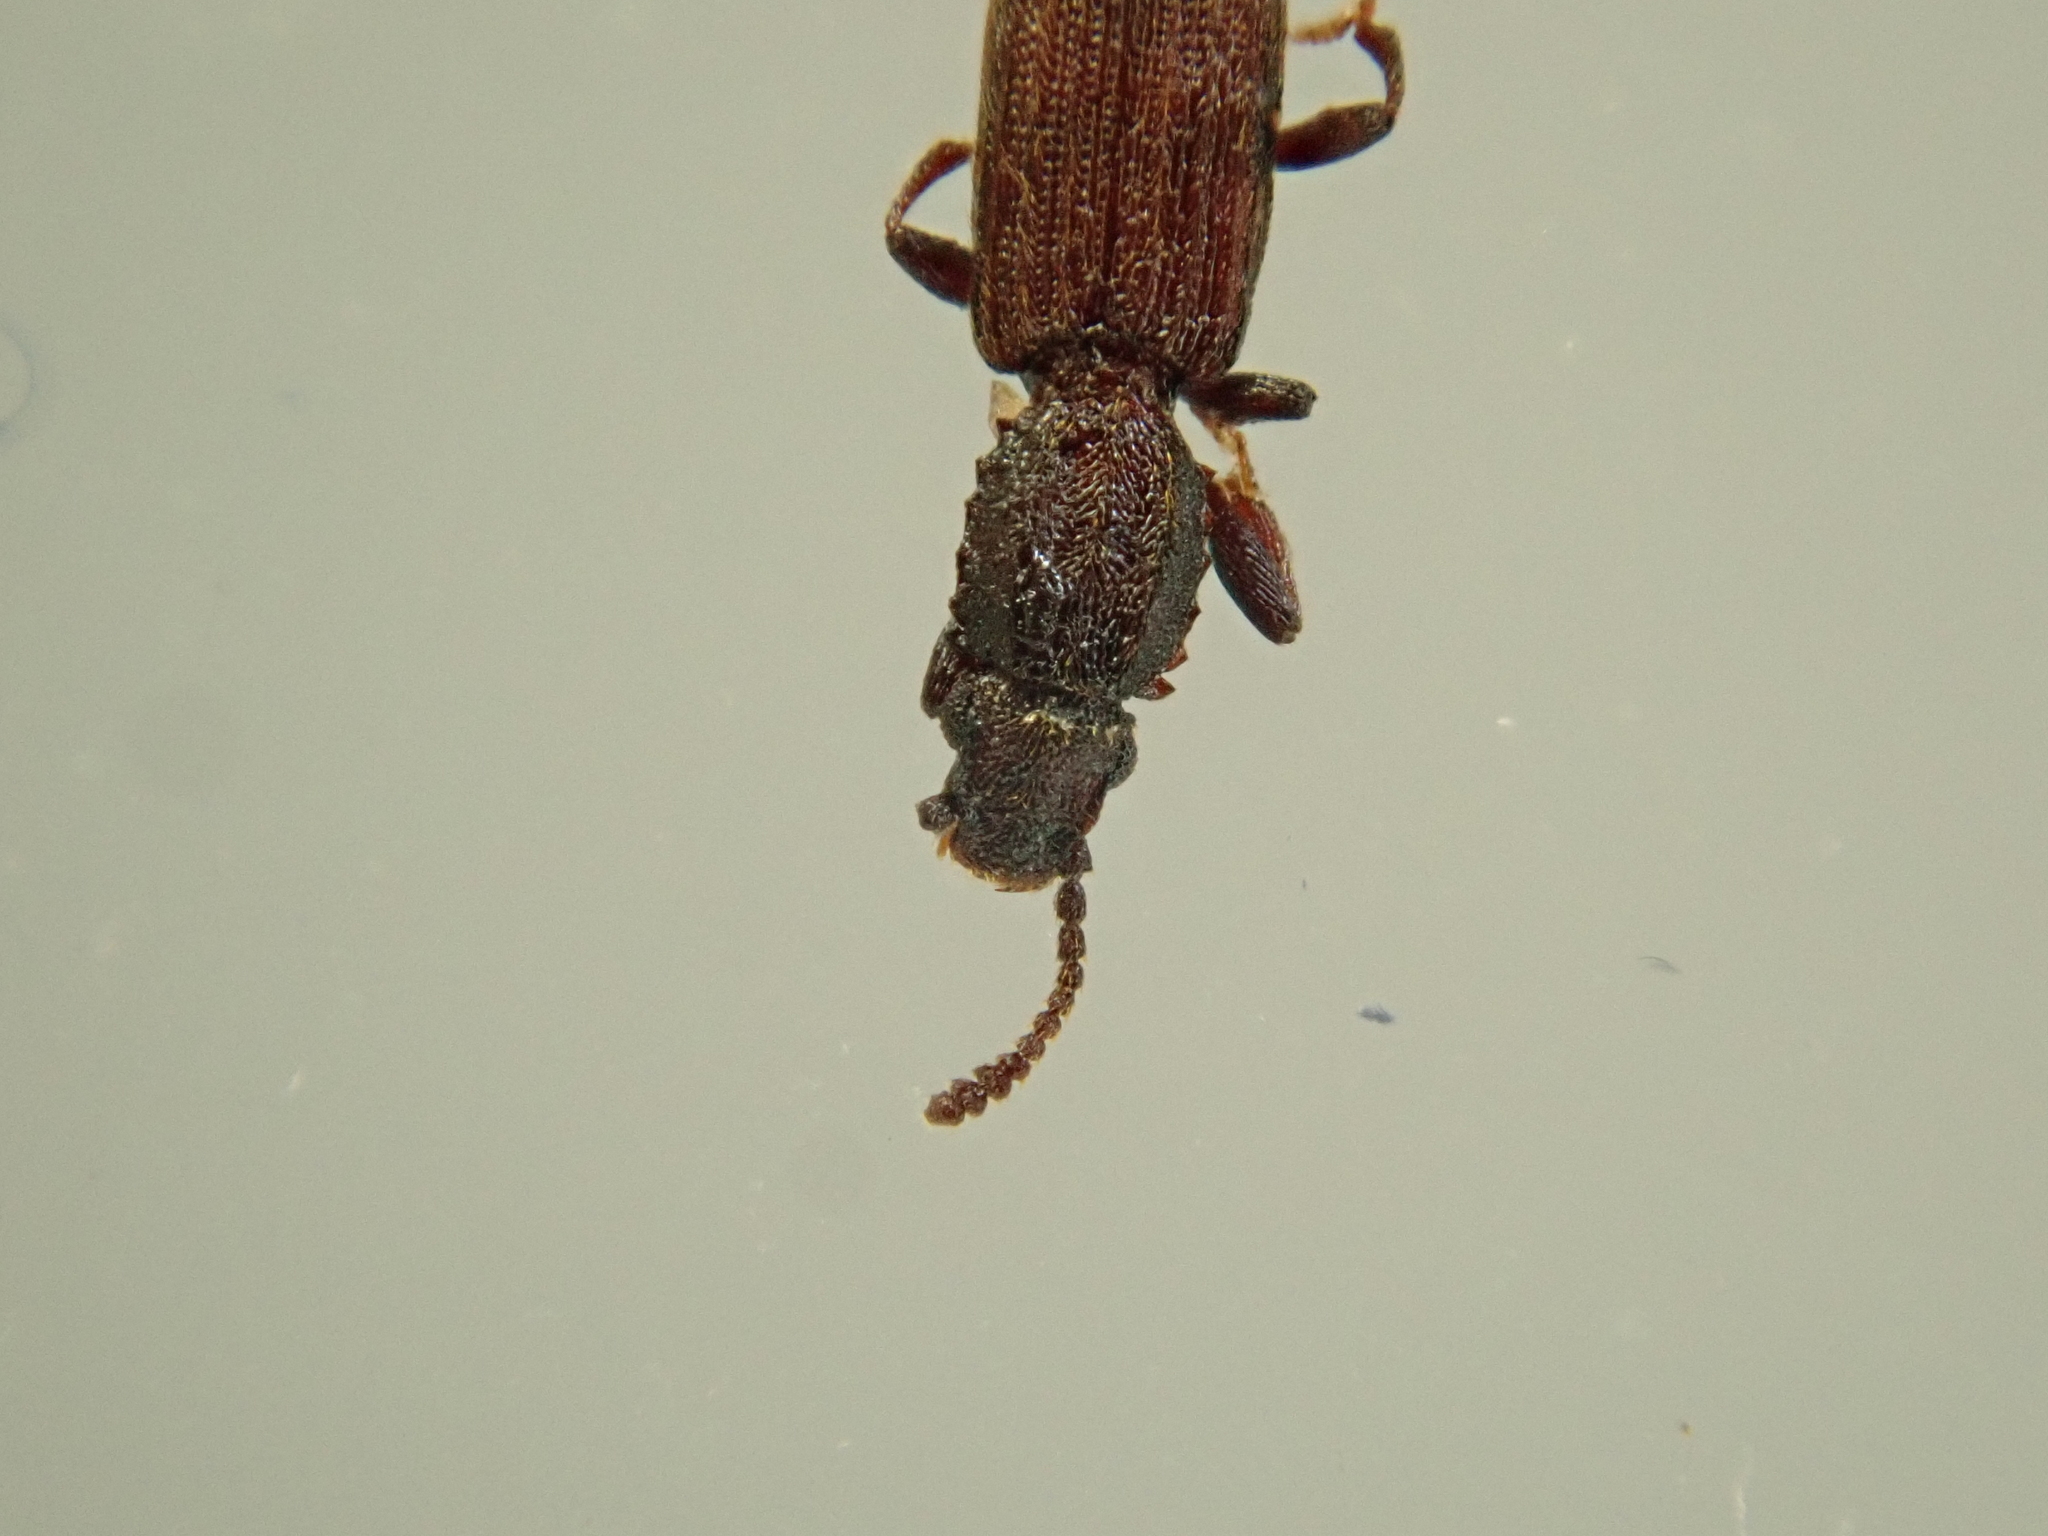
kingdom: Animalia
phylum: Arthropoda
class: Insecta
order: Coleoptera
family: Silvanidae
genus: Oryzaephilus
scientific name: Oryzaephilus mercator
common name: Merchant grain beetle
